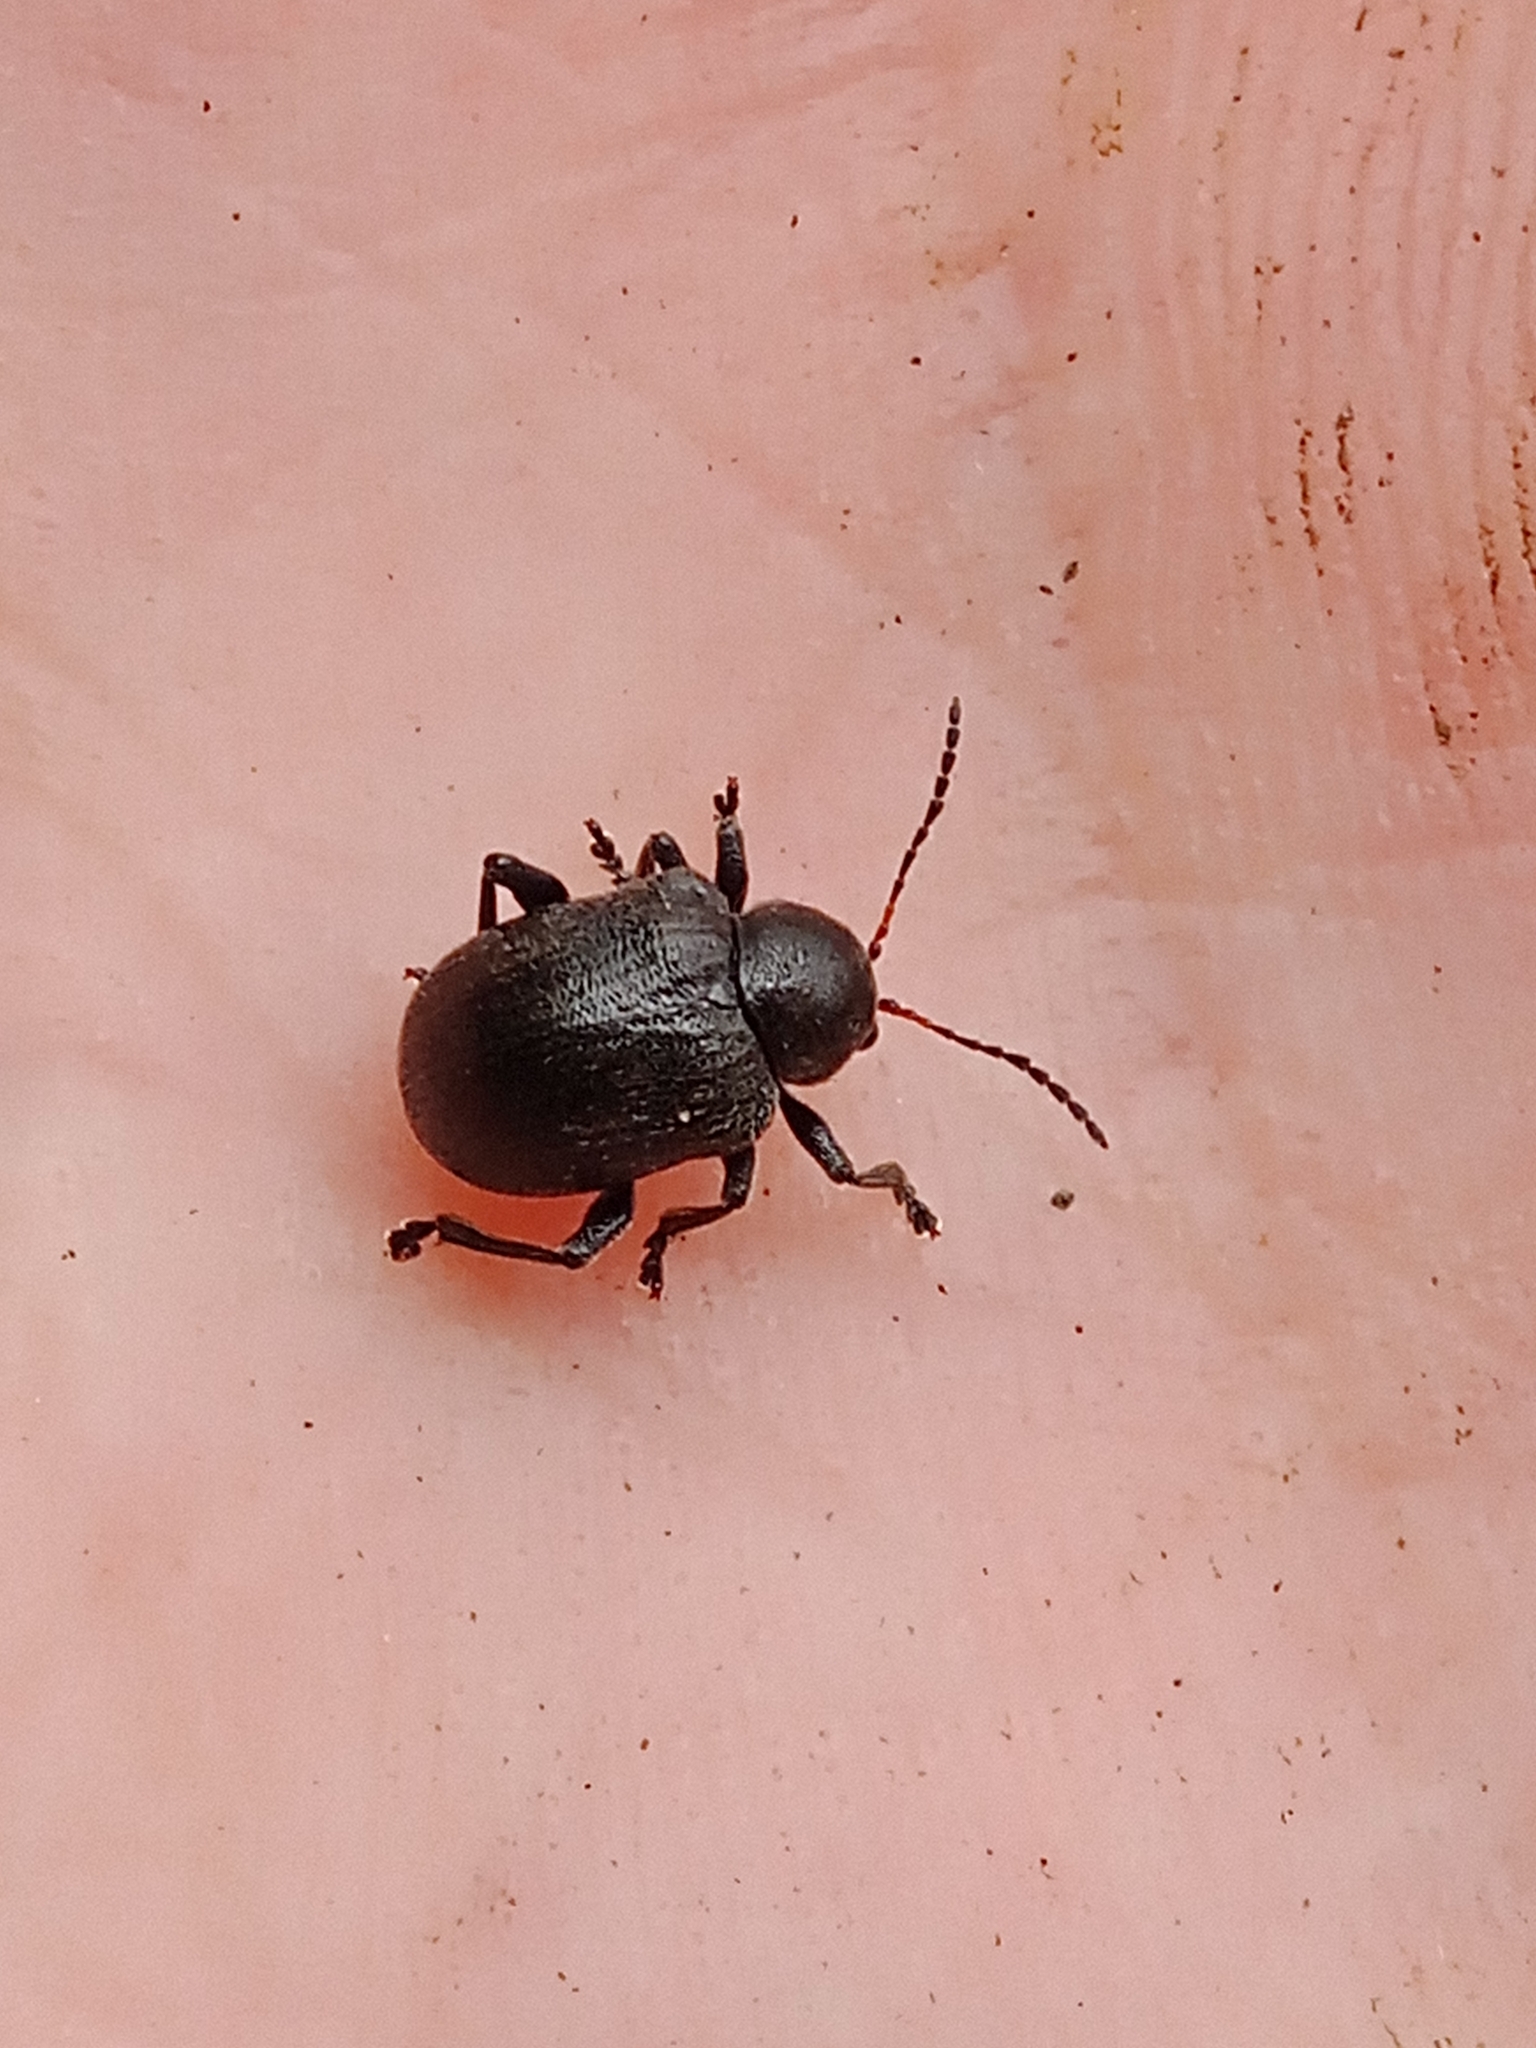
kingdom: Animalia
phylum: Arthropoda
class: Insecta
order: Coleoptera
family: Chrysomelidae
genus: Bromius
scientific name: Bromius obscurus
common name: Western grape rootworm
